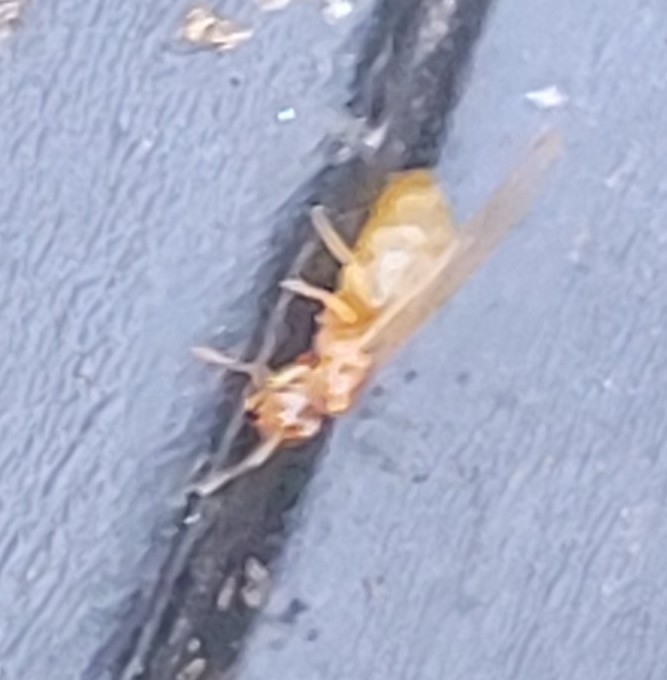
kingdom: Animalia
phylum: Arthropoda
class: Insecta
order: Hymenoptera
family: Formicidae
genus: Brachymyrmex
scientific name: Brachymyrmex depilis
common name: Hairless rover ant
